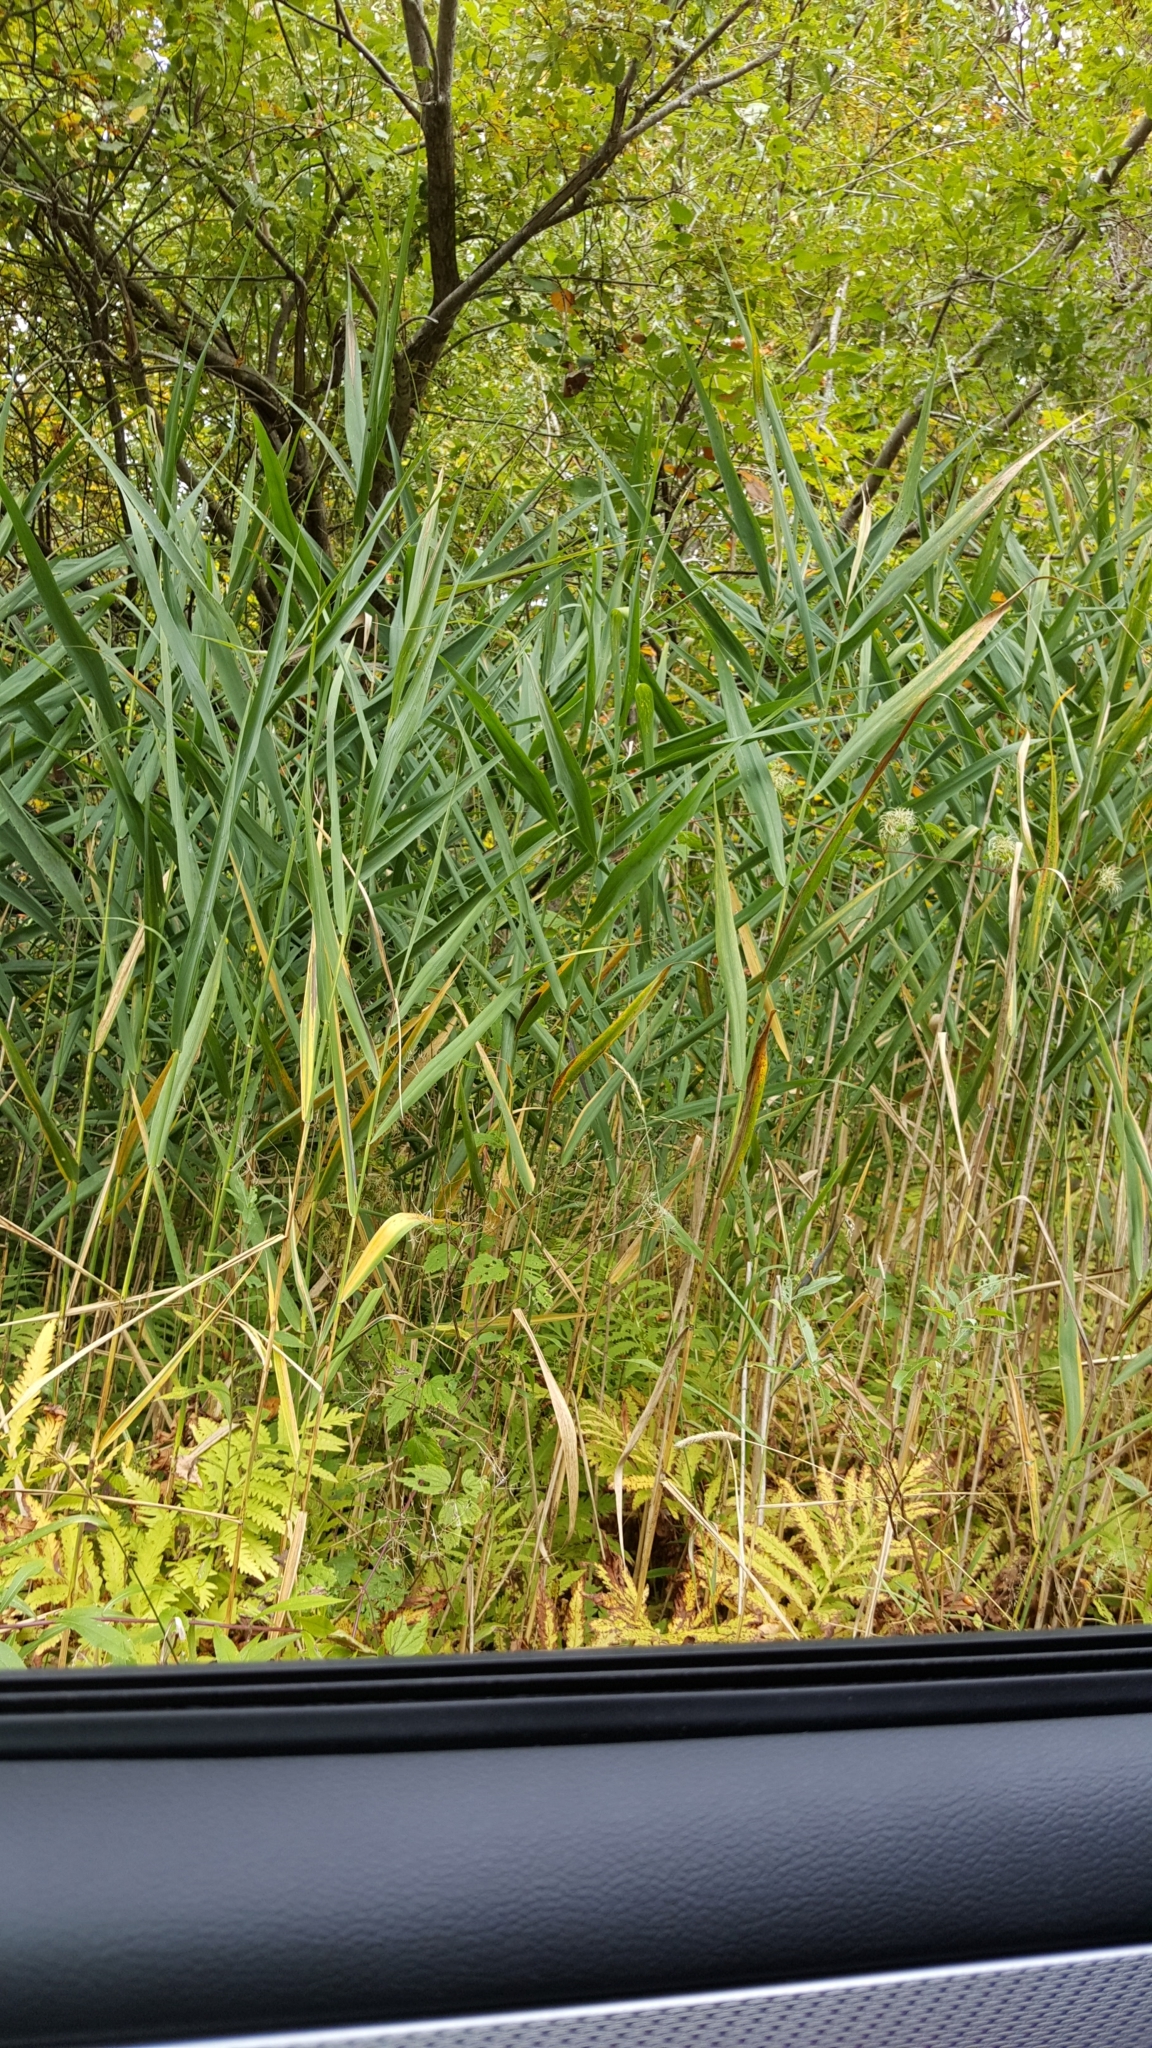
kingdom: Plantae
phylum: Tracheophyta
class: Liliopsida
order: Poales
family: Poaceae
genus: Phragmites
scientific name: Phragmites australis
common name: Common reed
